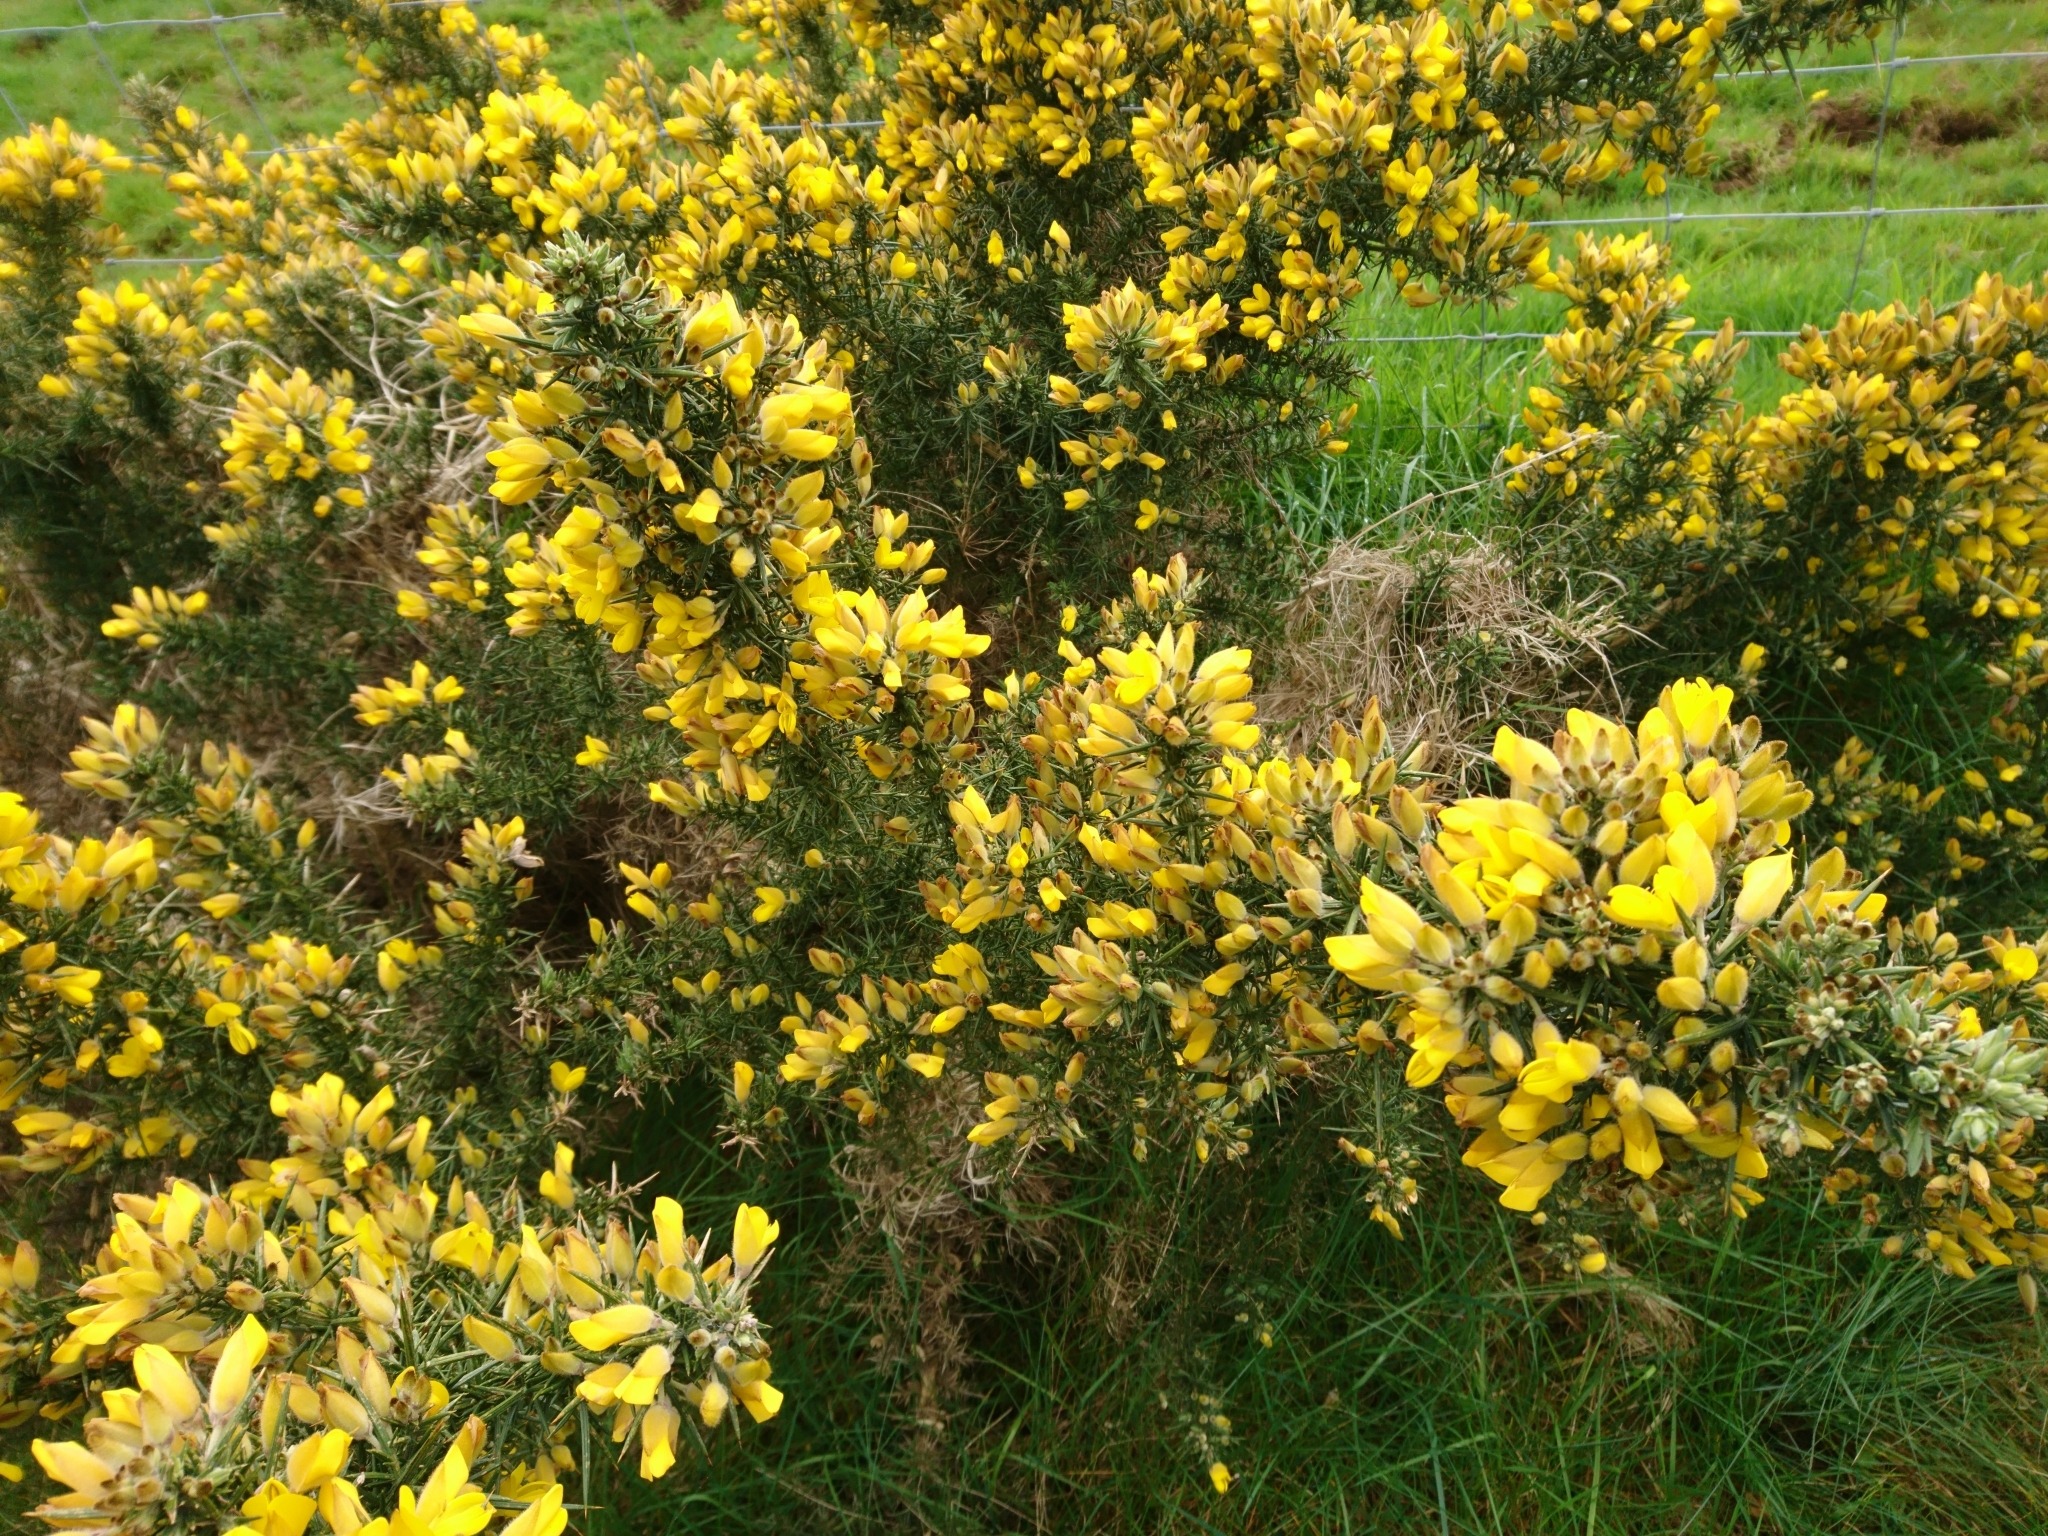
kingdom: Plantae
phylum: Tracheophyta
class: Magnoliopsida
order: Fabales
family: Fabaceae
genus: Ulex
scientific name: Ulex europaeus
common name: Common gorse
